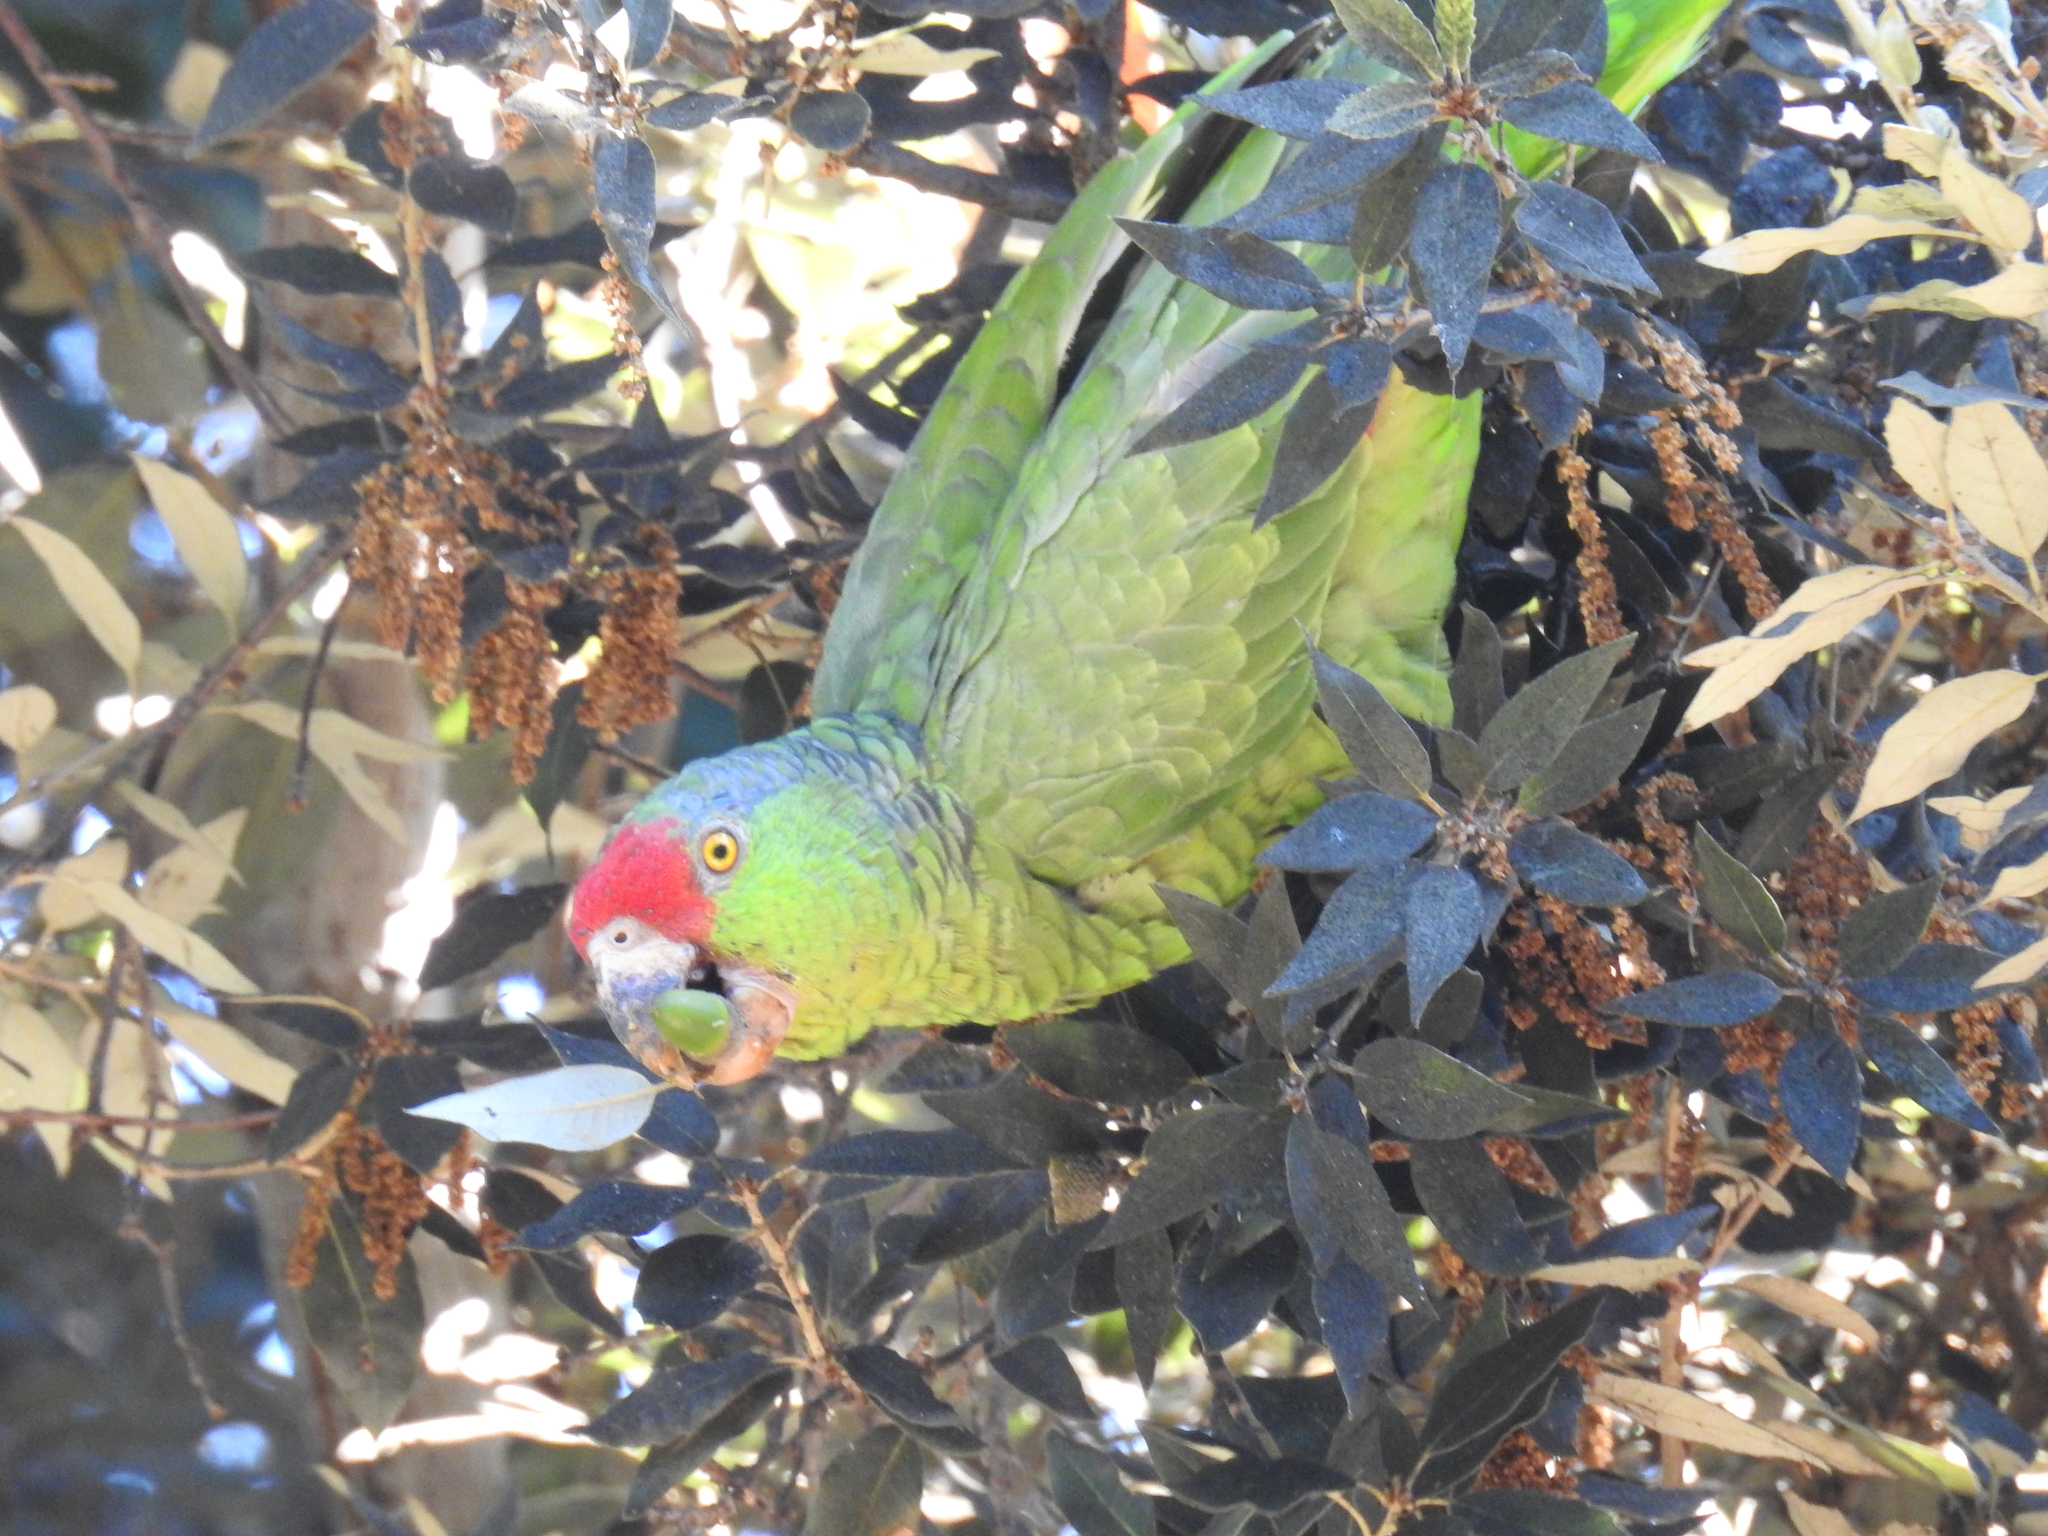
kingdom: Animalia
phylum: Chordata
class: Aves
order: Psittaciformes
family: Psittacidae
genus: Amazona
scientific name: Amazona viridigenalis
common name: Red-crowned amazon
